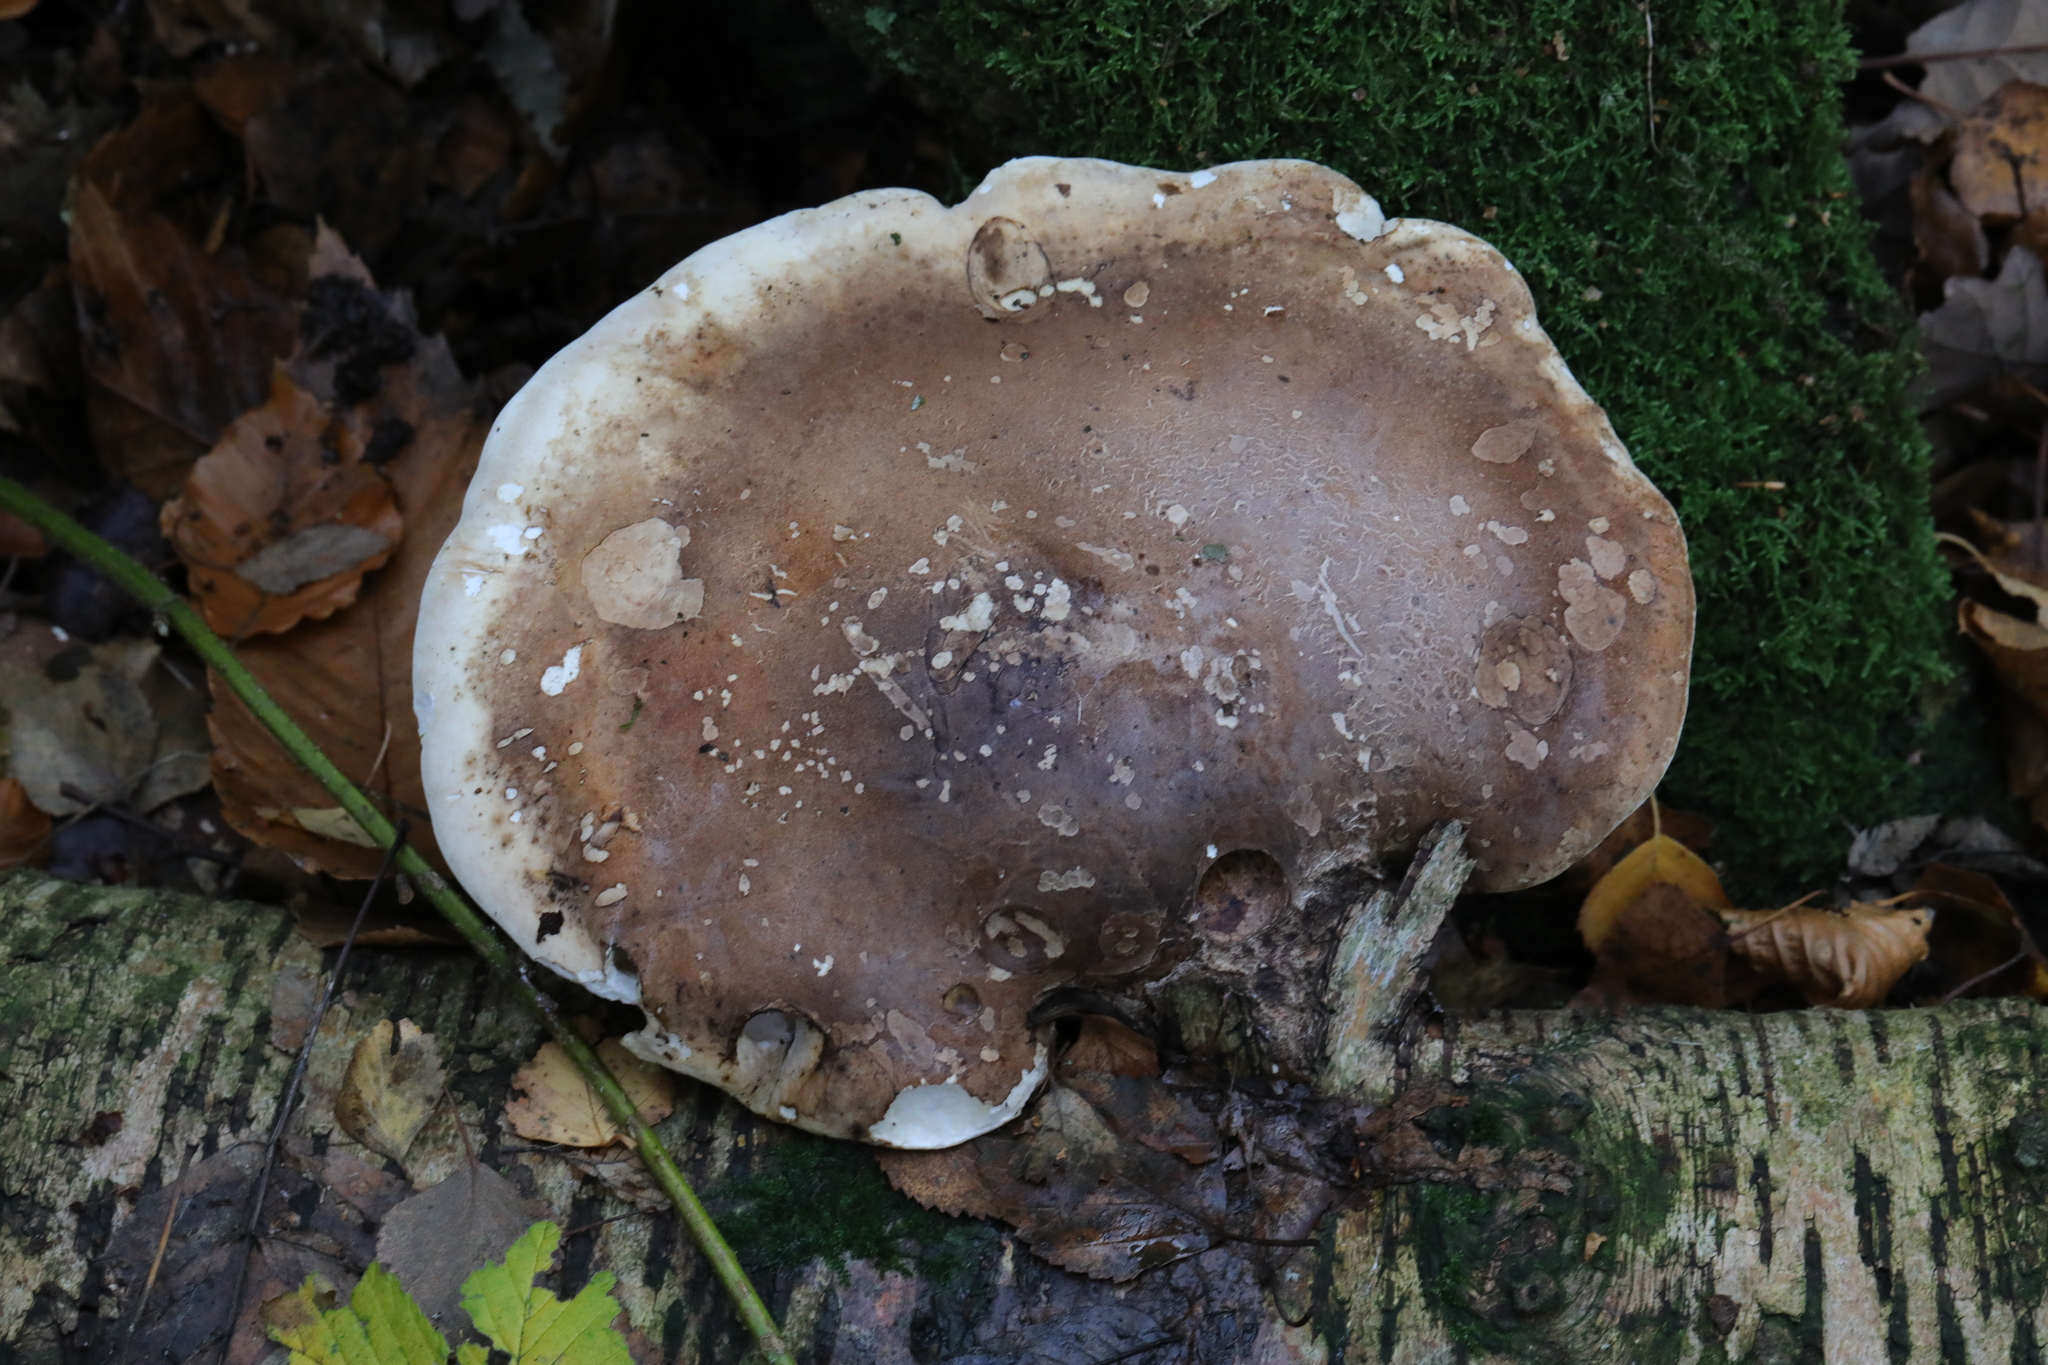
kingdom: Fungi
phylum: Basidiomycota
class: Agaricomycetes
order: Polyporales
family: Fomitopsidaceae
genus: Fomitopsis
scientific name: Fomitopsis betulina
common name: Birch polypore
